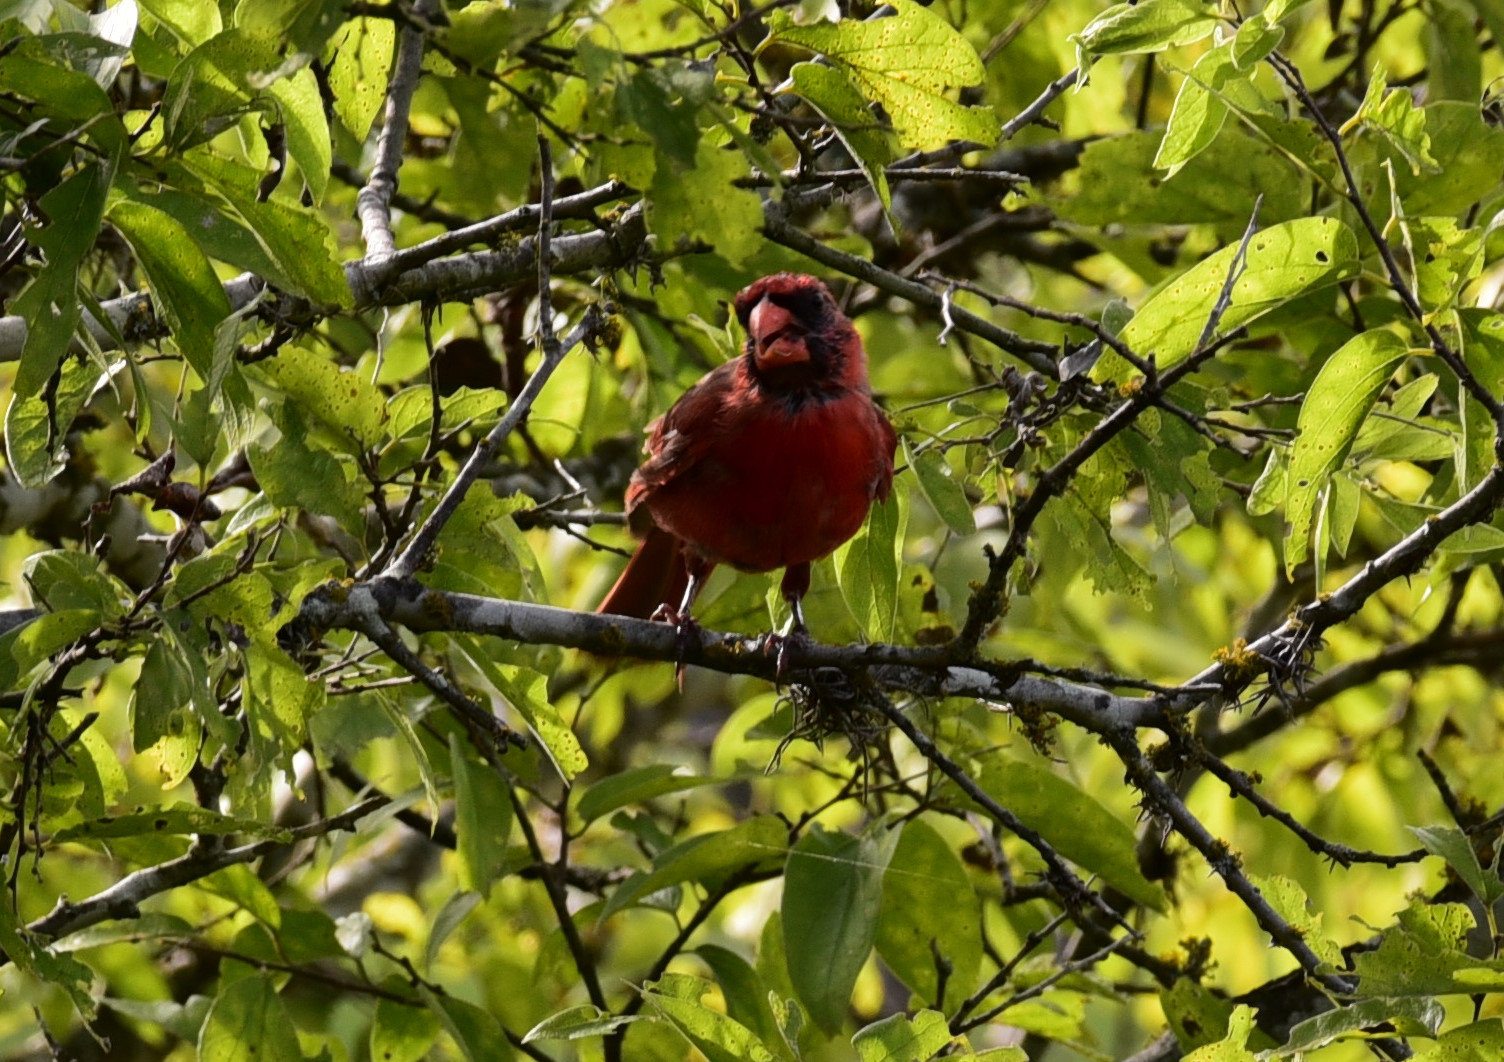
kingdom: Animalia
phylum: Chordata
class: Aves
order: Passeriformes
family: Cardinalidae
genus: Cardinalis
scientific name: Cardinalis cardinalis
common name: Northern cardinal
